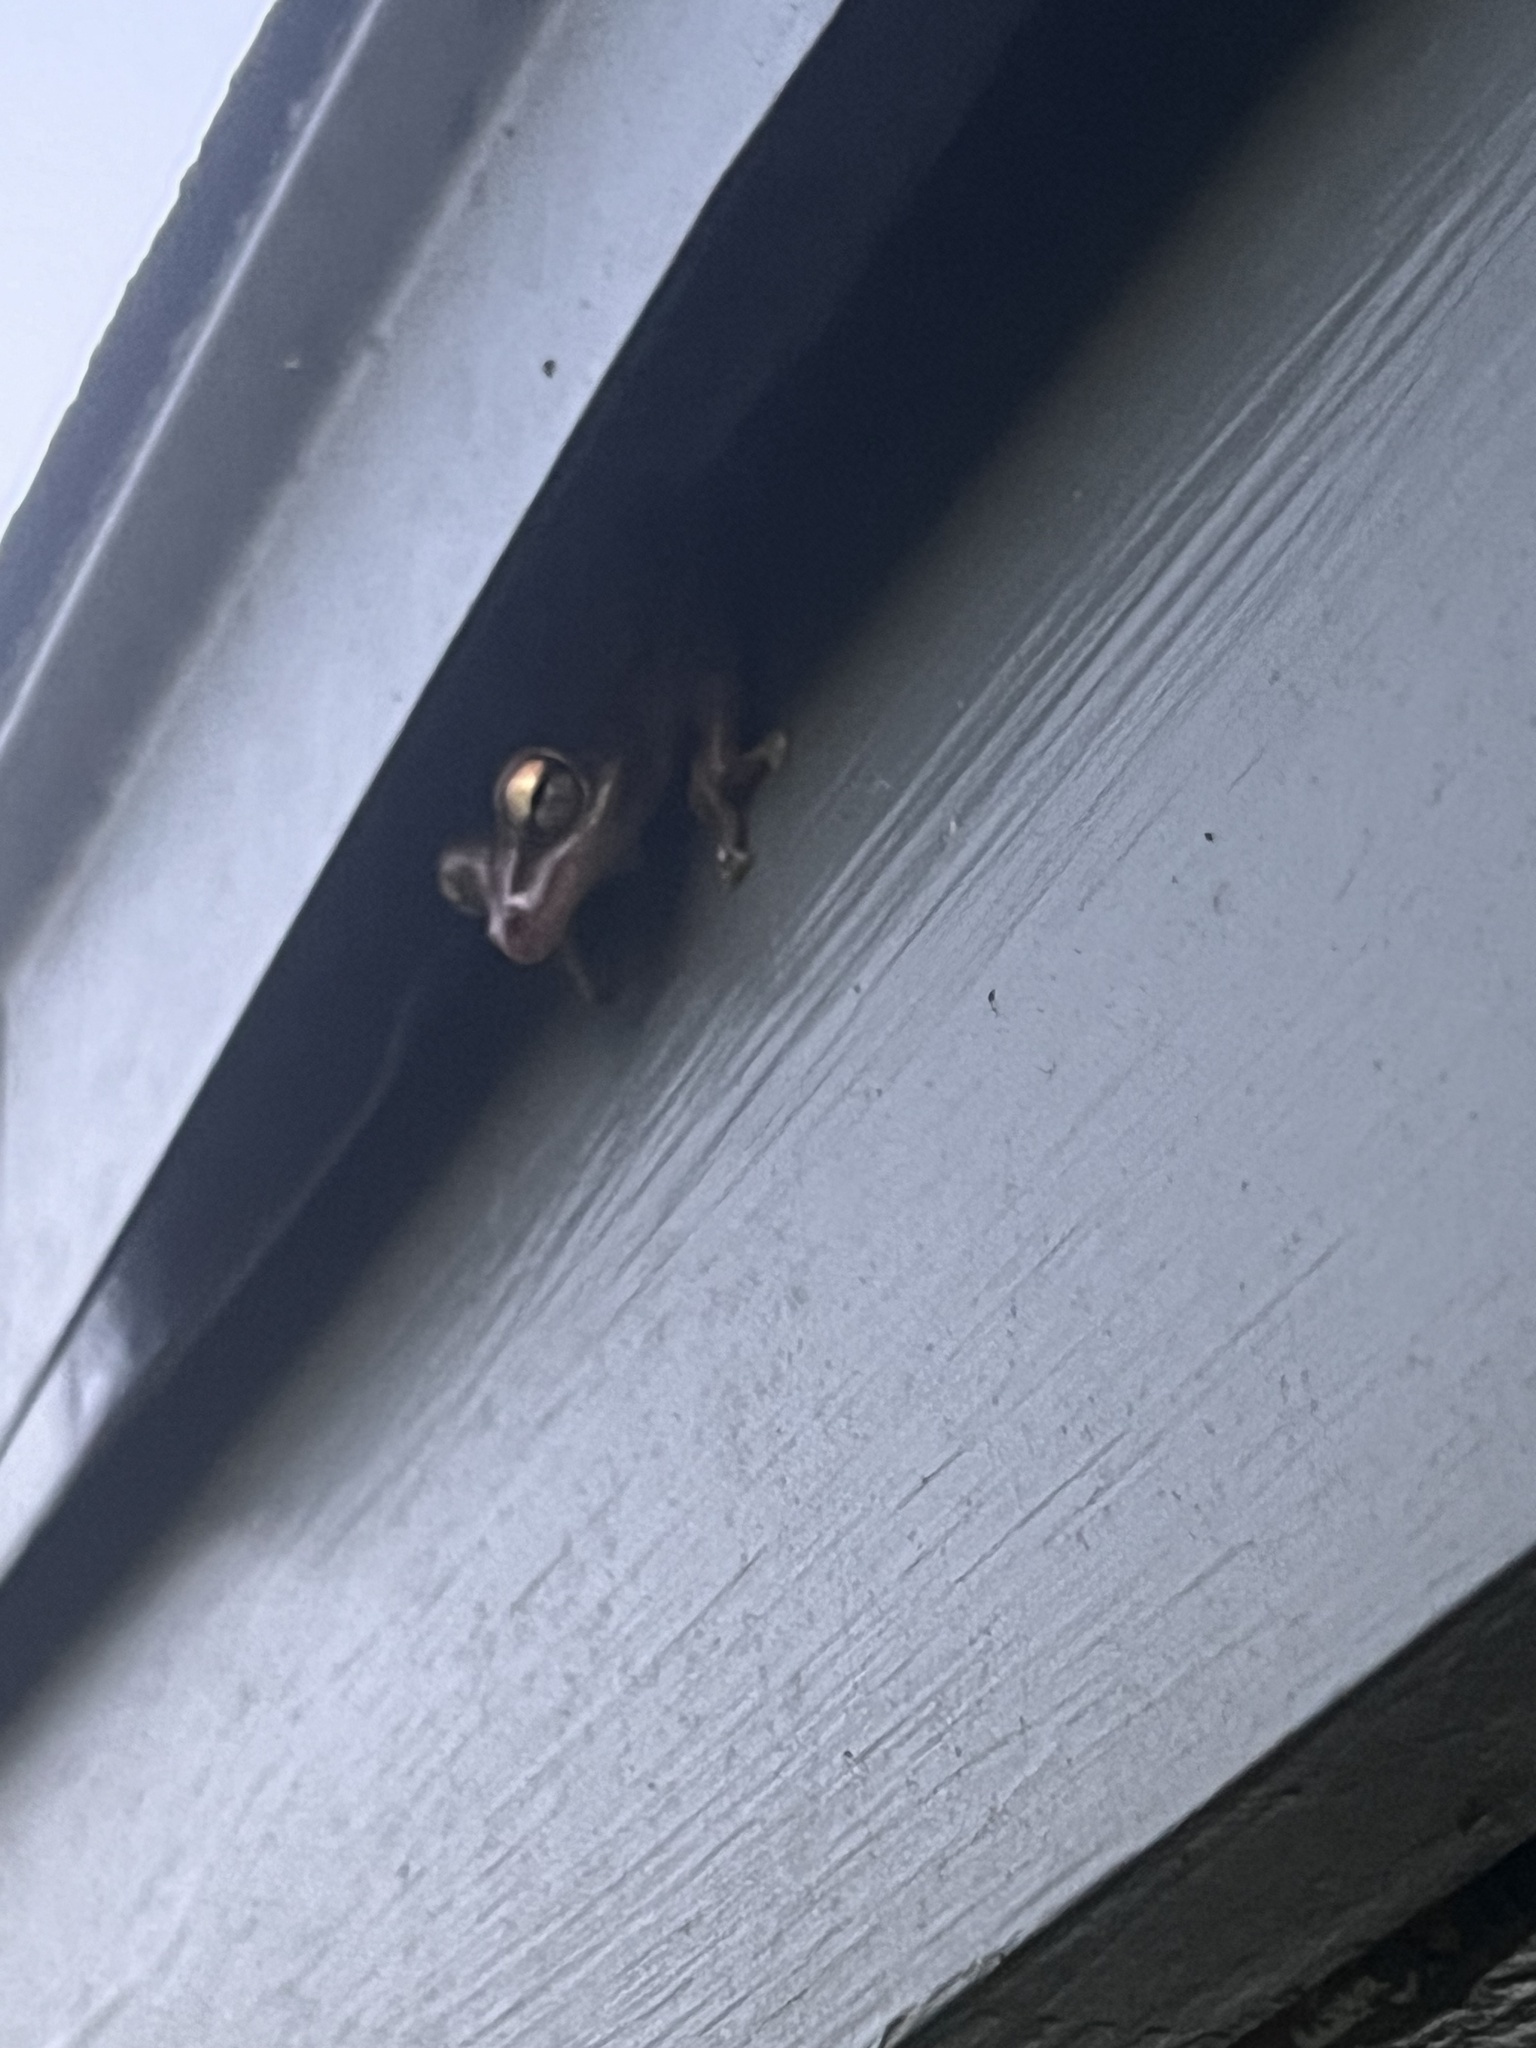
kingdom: Animalia
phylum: Chordata
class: Amphibia
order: Anura
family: Hylidae
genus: Osteopilus
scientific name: Osteopilus septentrionalis
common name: Cuban treefrog
